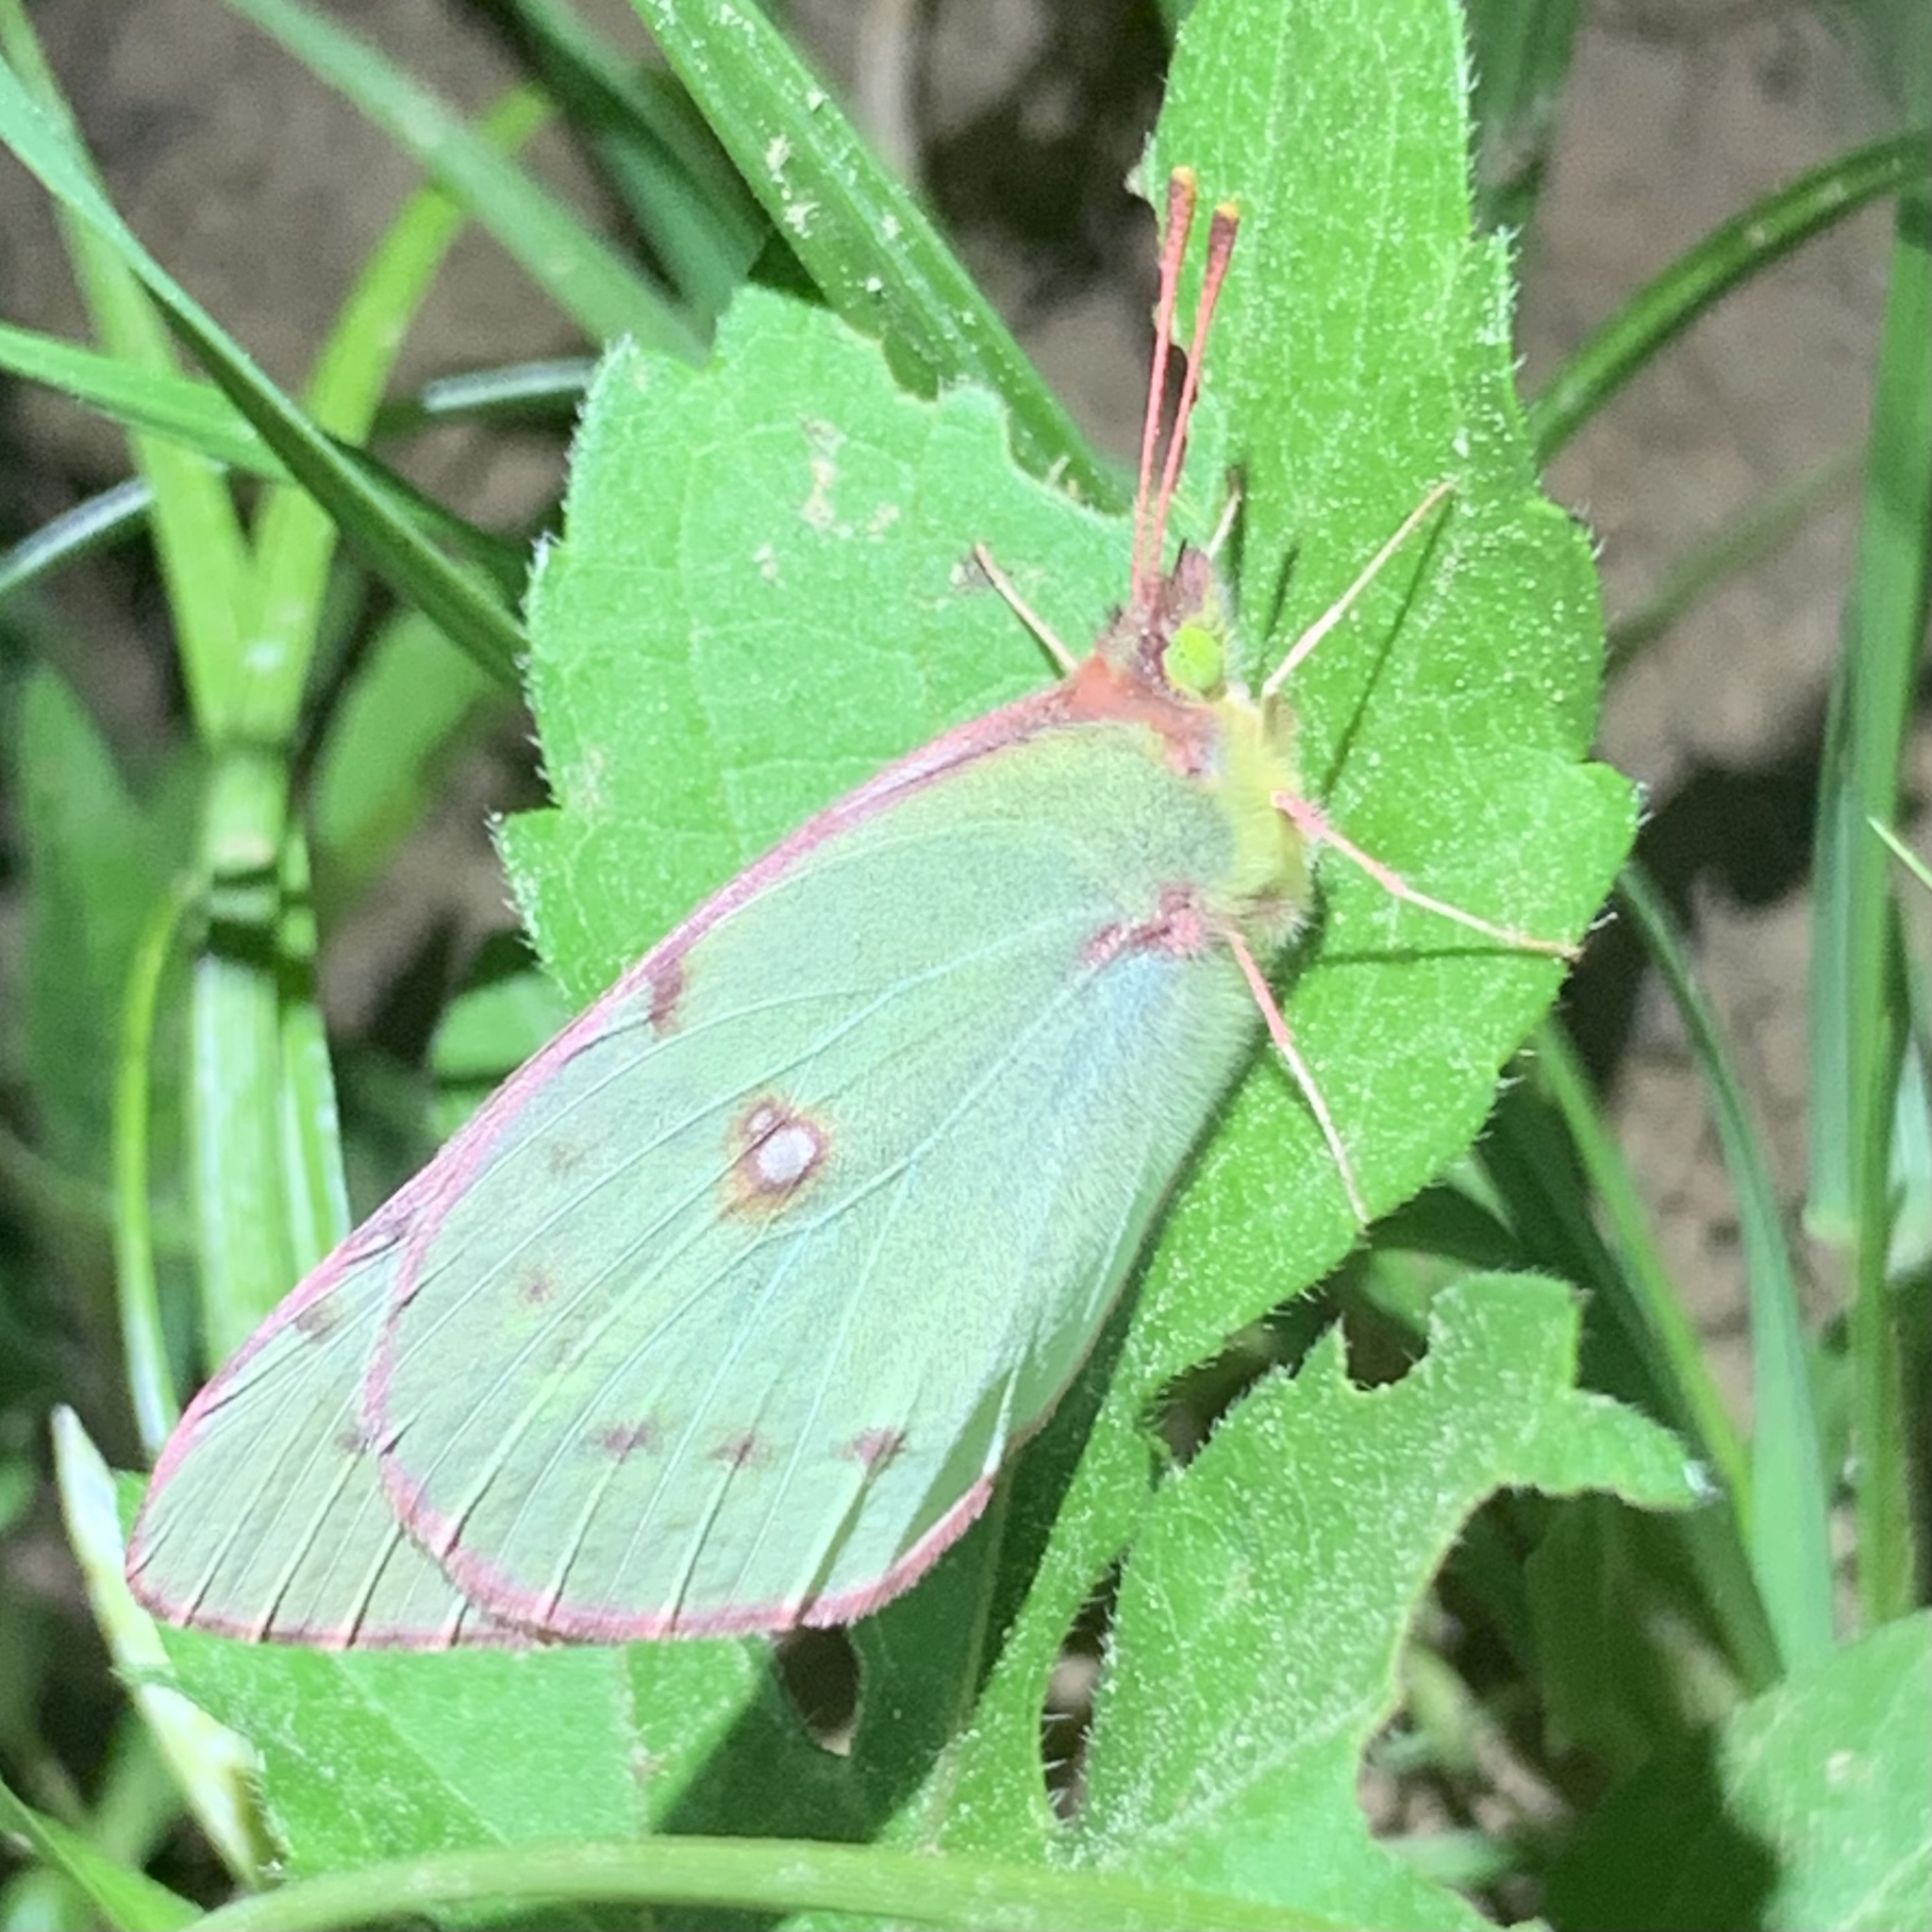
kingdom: Animalia
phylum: Arthropoda
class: Insecta
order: Lepidoptera
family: Pieridae
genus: Colias
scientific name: Colias eurytheme
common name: Alfalfa butterfly
